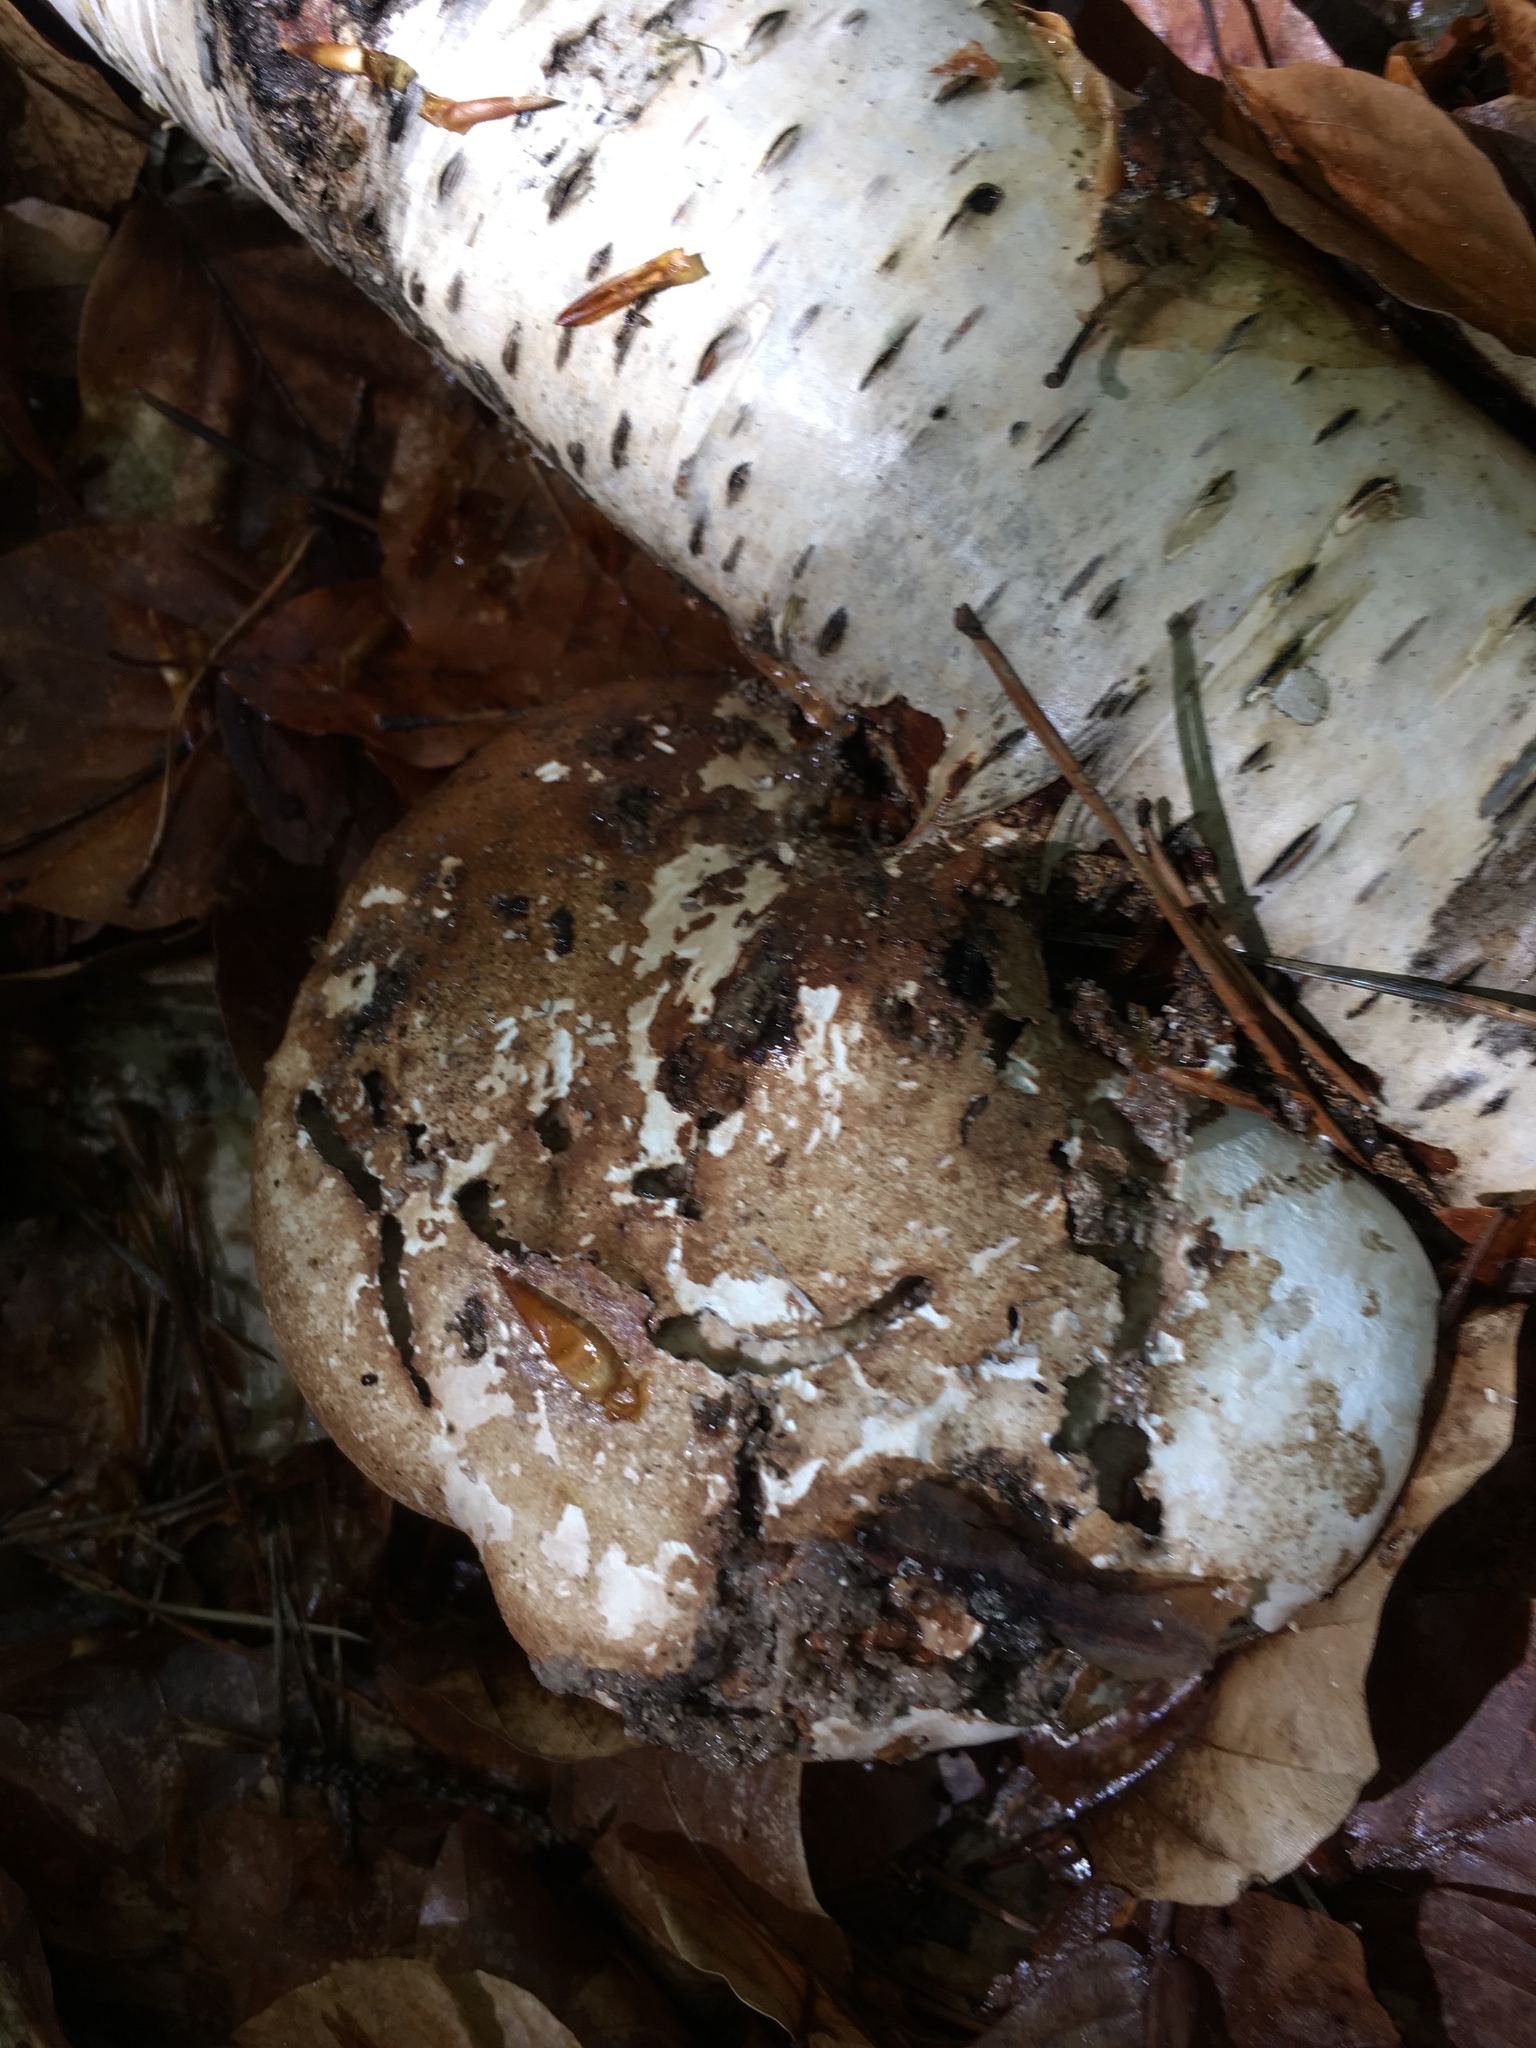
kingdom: Fungi
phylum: Basidiomycota
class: Agaricomycetes
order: Polyporales
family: Fomitopsidaceae
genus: Fomitopsis
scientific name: Fomitopsis betulina
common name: Birch polypore
